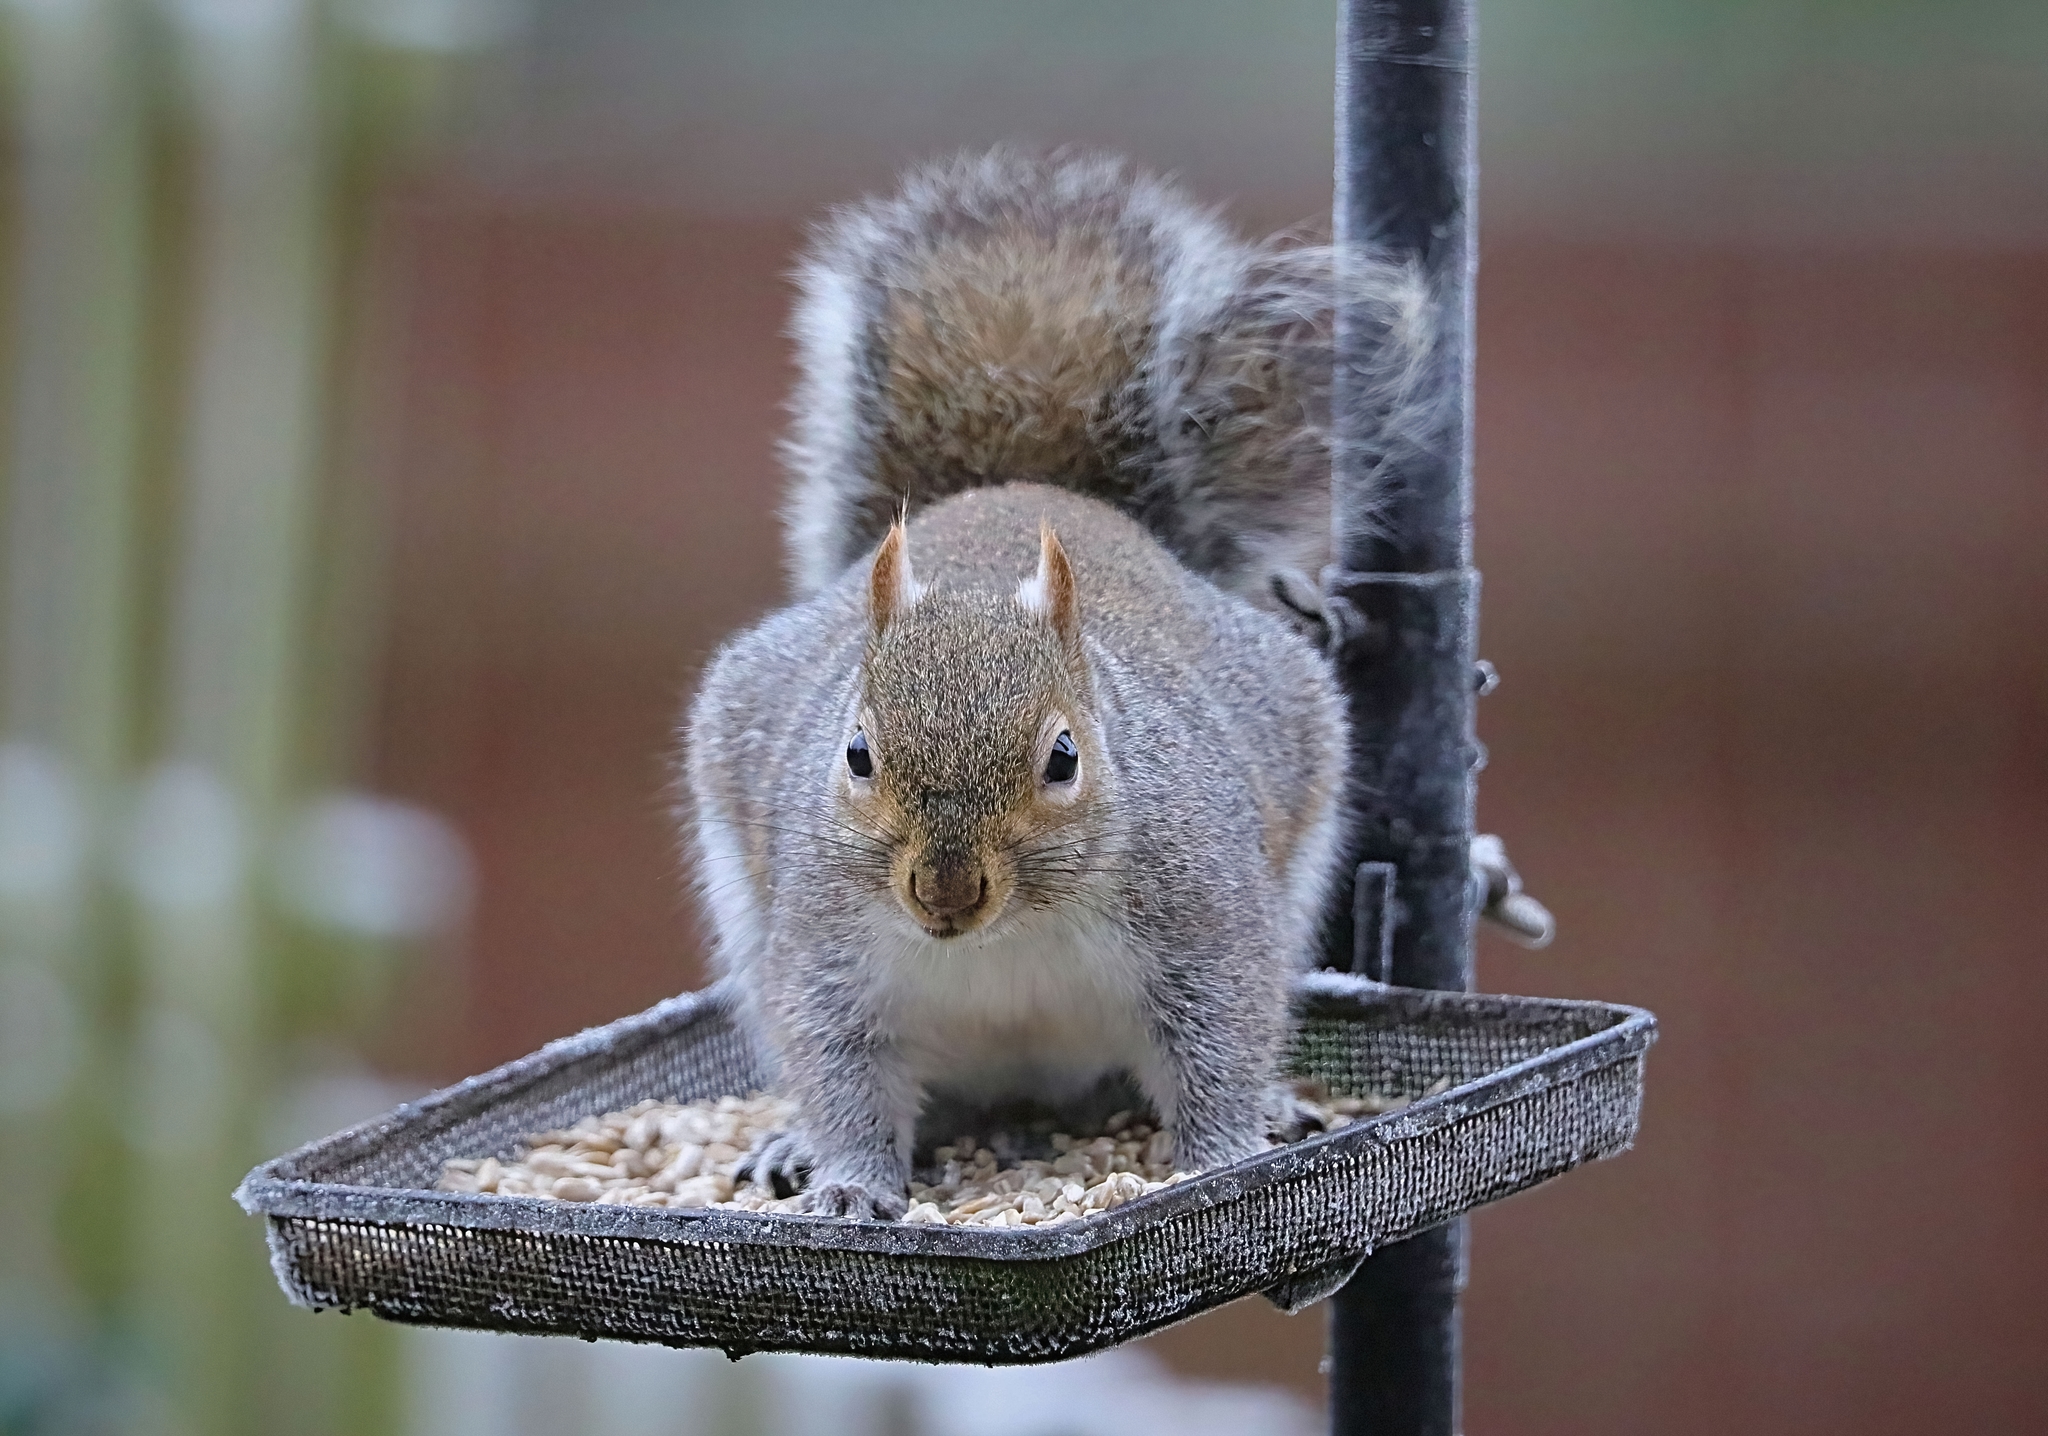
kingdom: Animalia
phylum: Chordata
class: Mammalia
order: Rodentia
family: Sciuridae
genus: Sciurus
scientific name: Sciurus carolinensis
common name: Eastern gray squirrel
